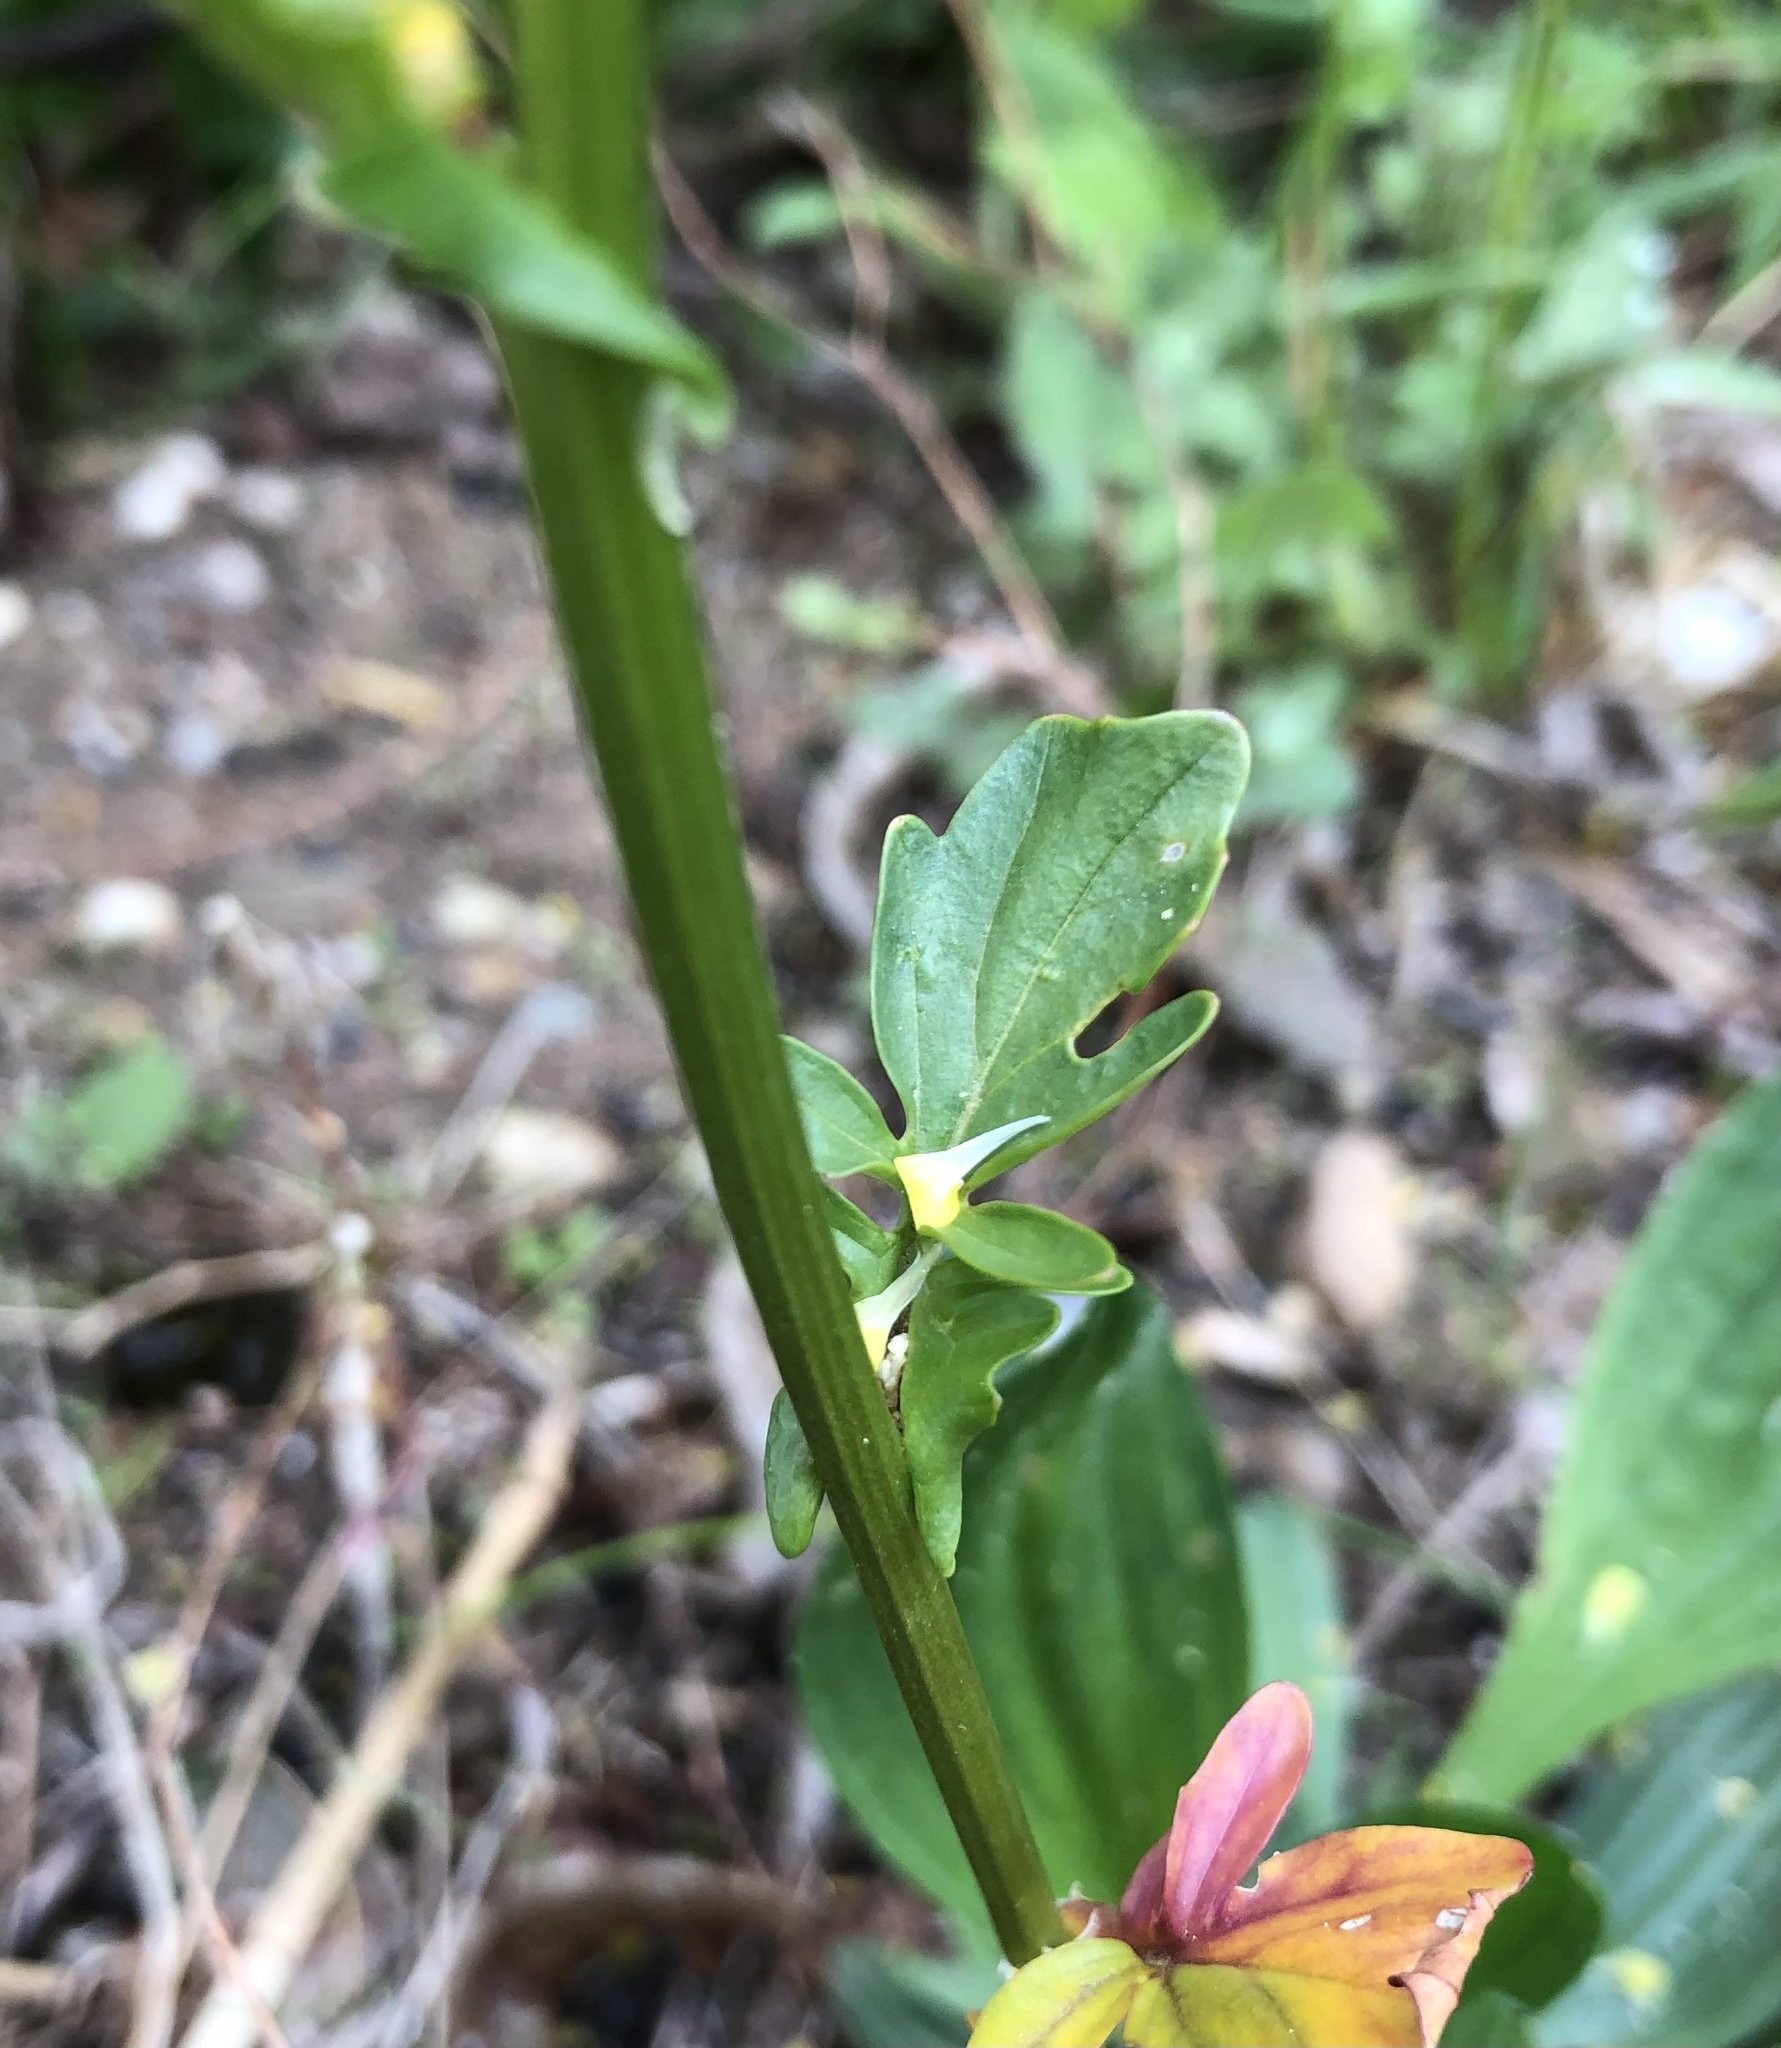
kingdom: Plantae
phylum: Tracheophyta
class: Magnoliopsida
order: Brassicales
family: Brassicaceae
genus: Barbarea
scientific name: Barbarea vulgaris
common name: Cressy-greens
